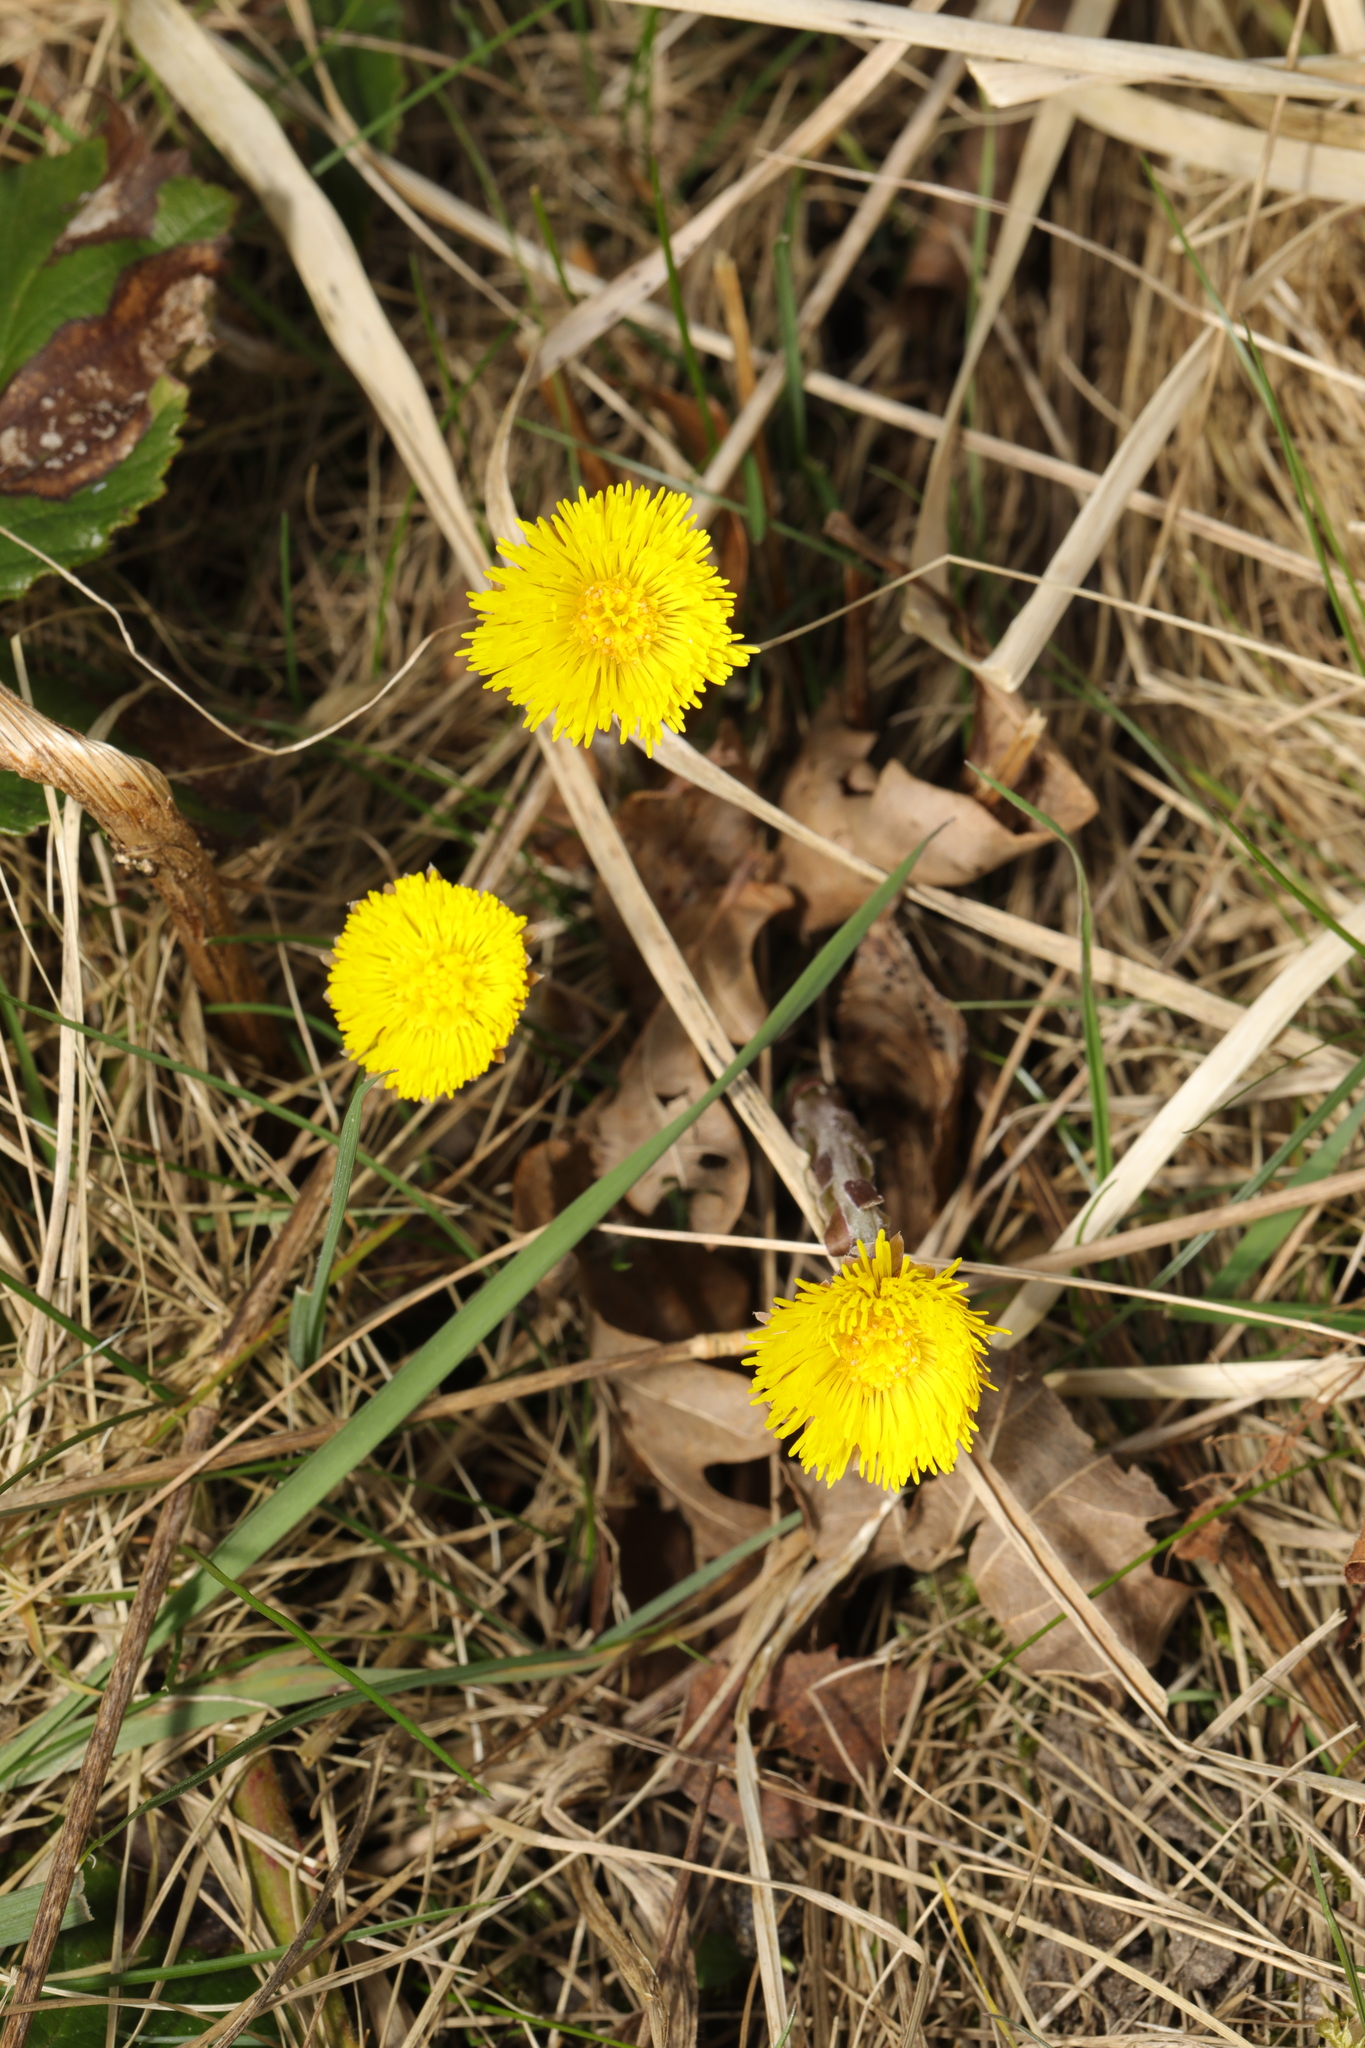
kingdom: Plantae
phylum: Tracheophyta
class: Magnoliopsida
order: Asterales
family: Asteraceae
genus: Tussilago
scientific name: Tussilago farfara
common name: Coltsfoot
